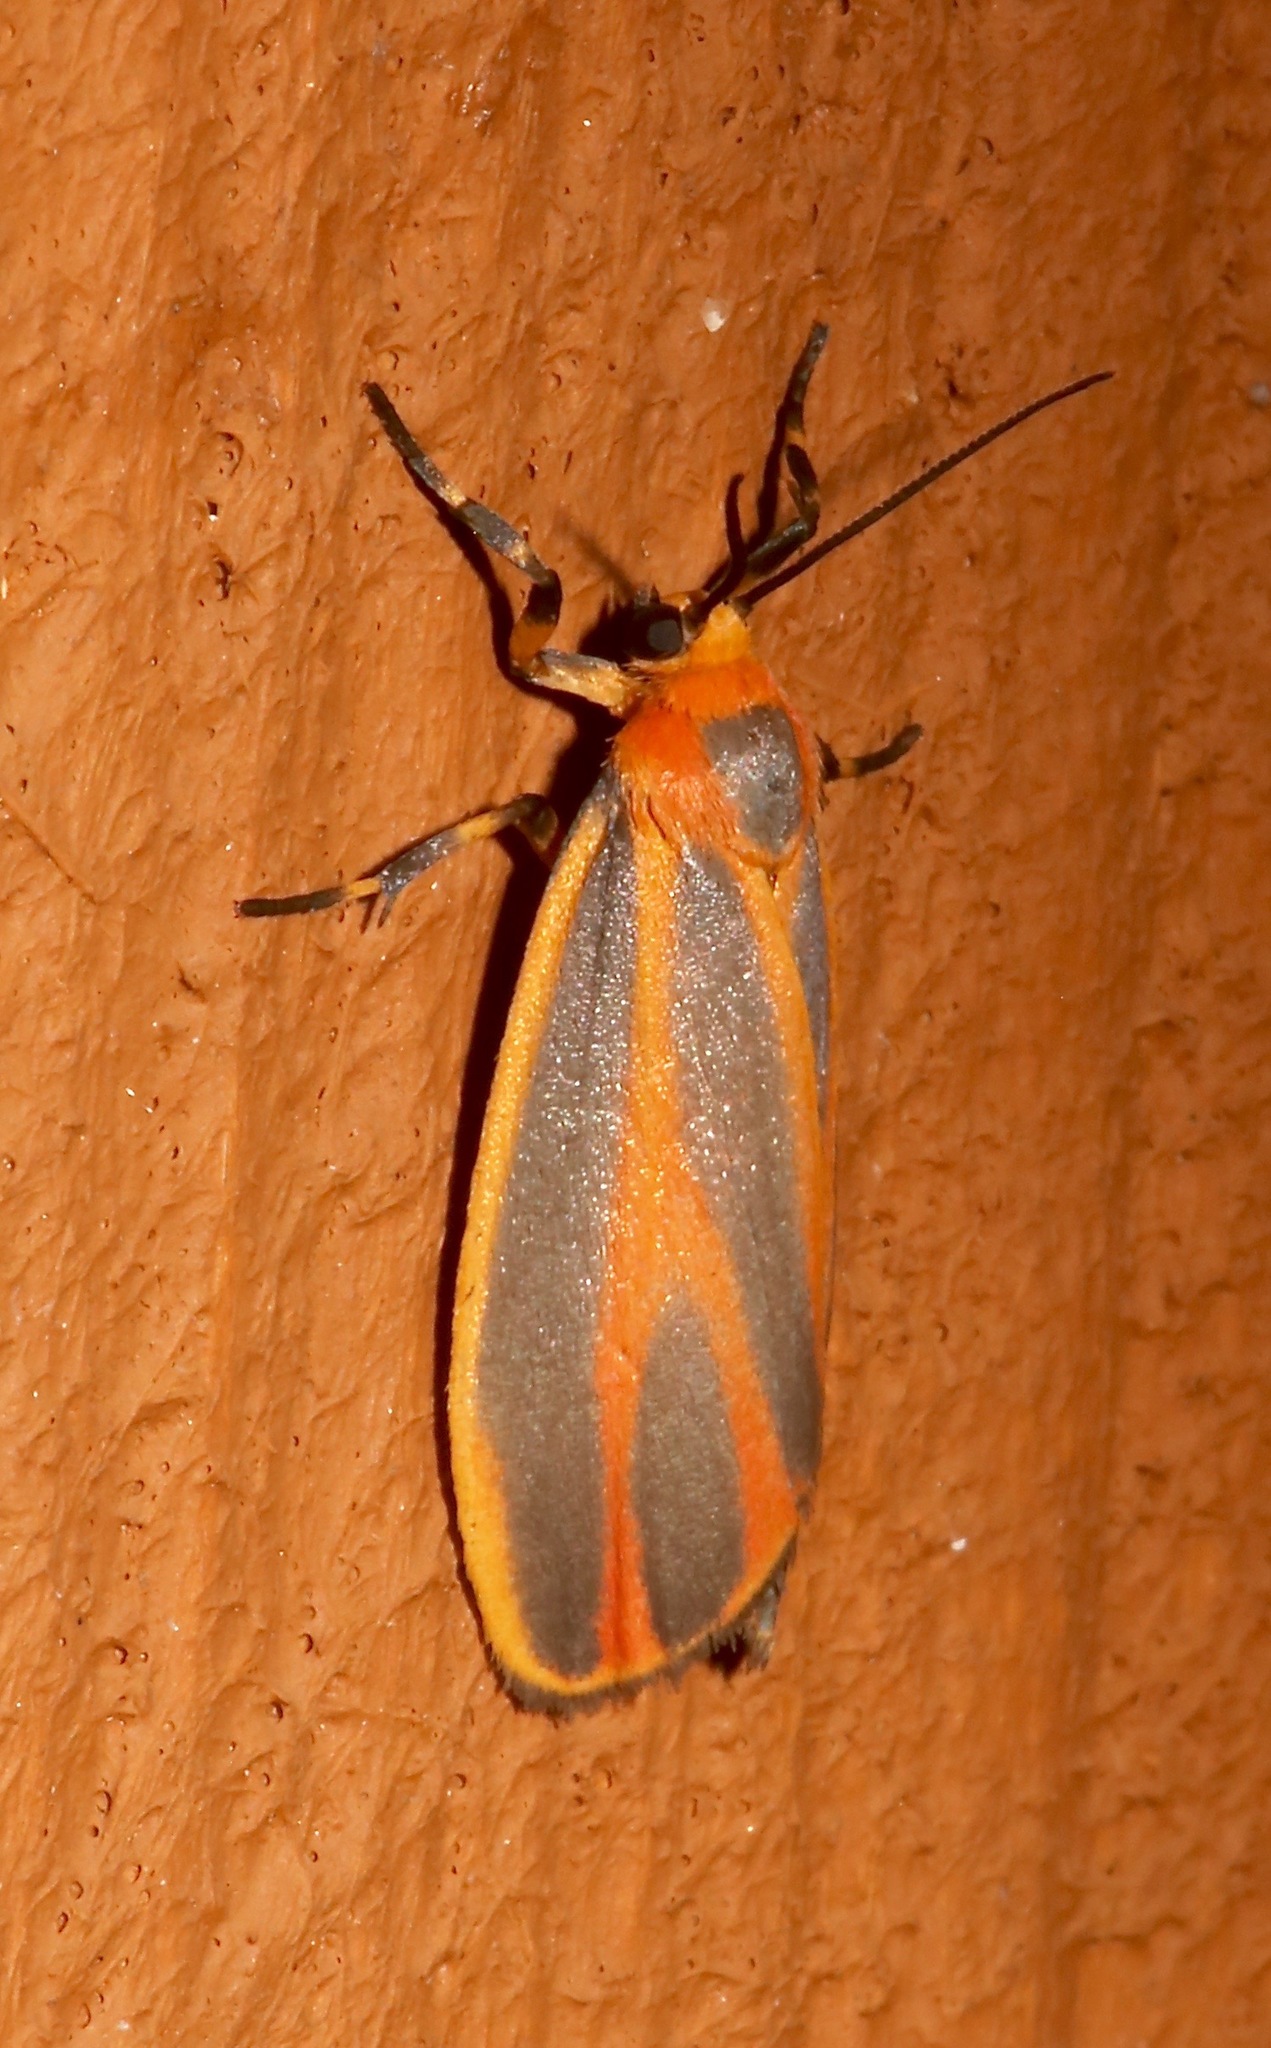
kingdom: Animalia
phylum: Arthropoda
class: Insecta
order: Lepidoptera
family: Erebidae
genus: Hypoprepia
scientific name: Hypoprepia fucosa
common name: Painted lichen moth
